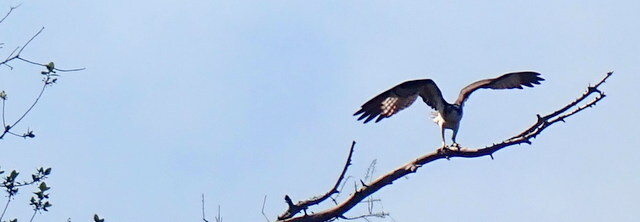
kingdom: Animalia
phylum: Chordata
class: Aves
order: Accipitriformes
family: Pandionidae
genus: Pandion
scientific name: Pandion haliaetus
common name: Osprey
